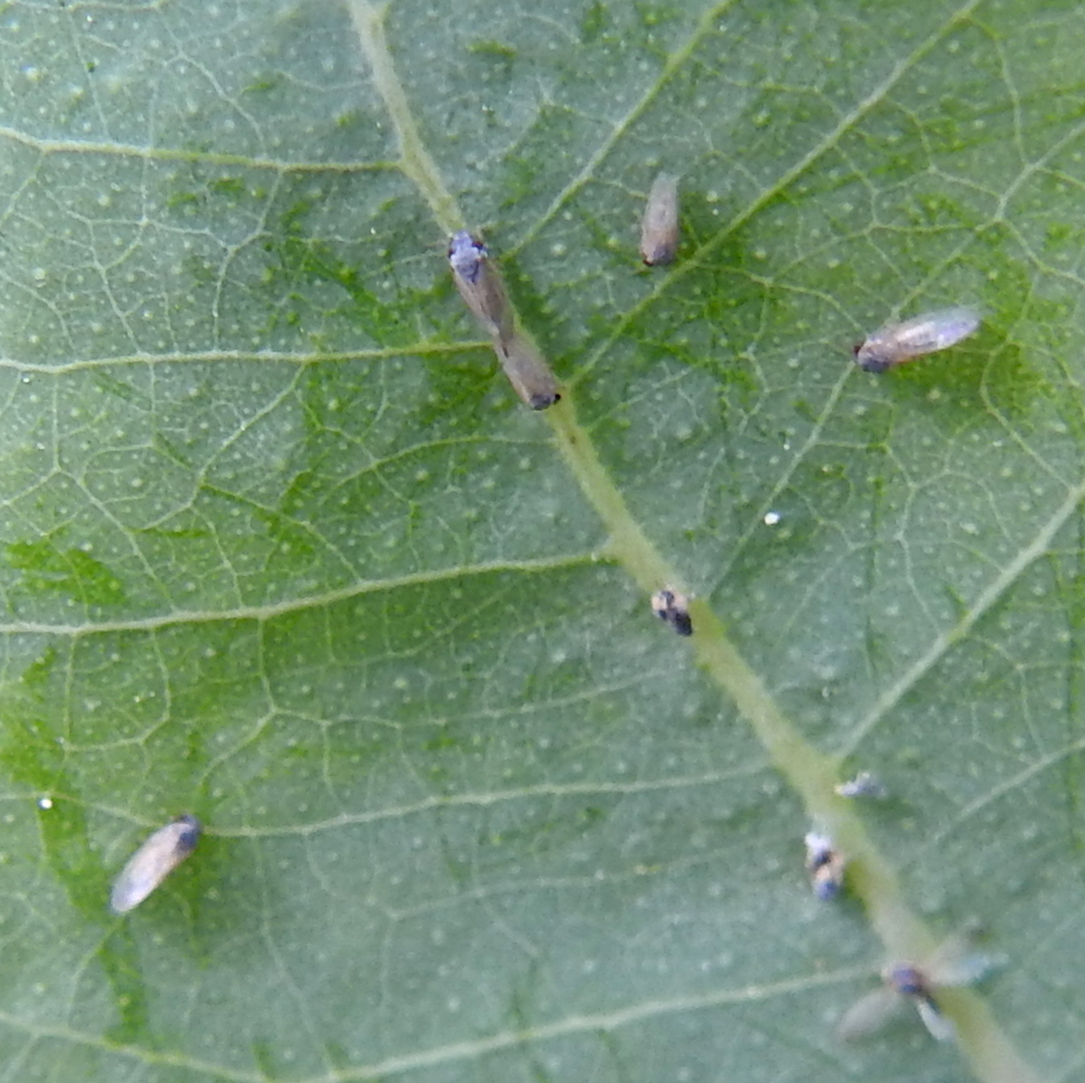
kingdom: Animalia
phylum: Arthropoda
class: Insecta
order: Hemiptera
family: Aphalaridae
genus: Ctenarytaina
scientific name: Ctenarytaina eucalypti
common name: Blue gum psyllid
